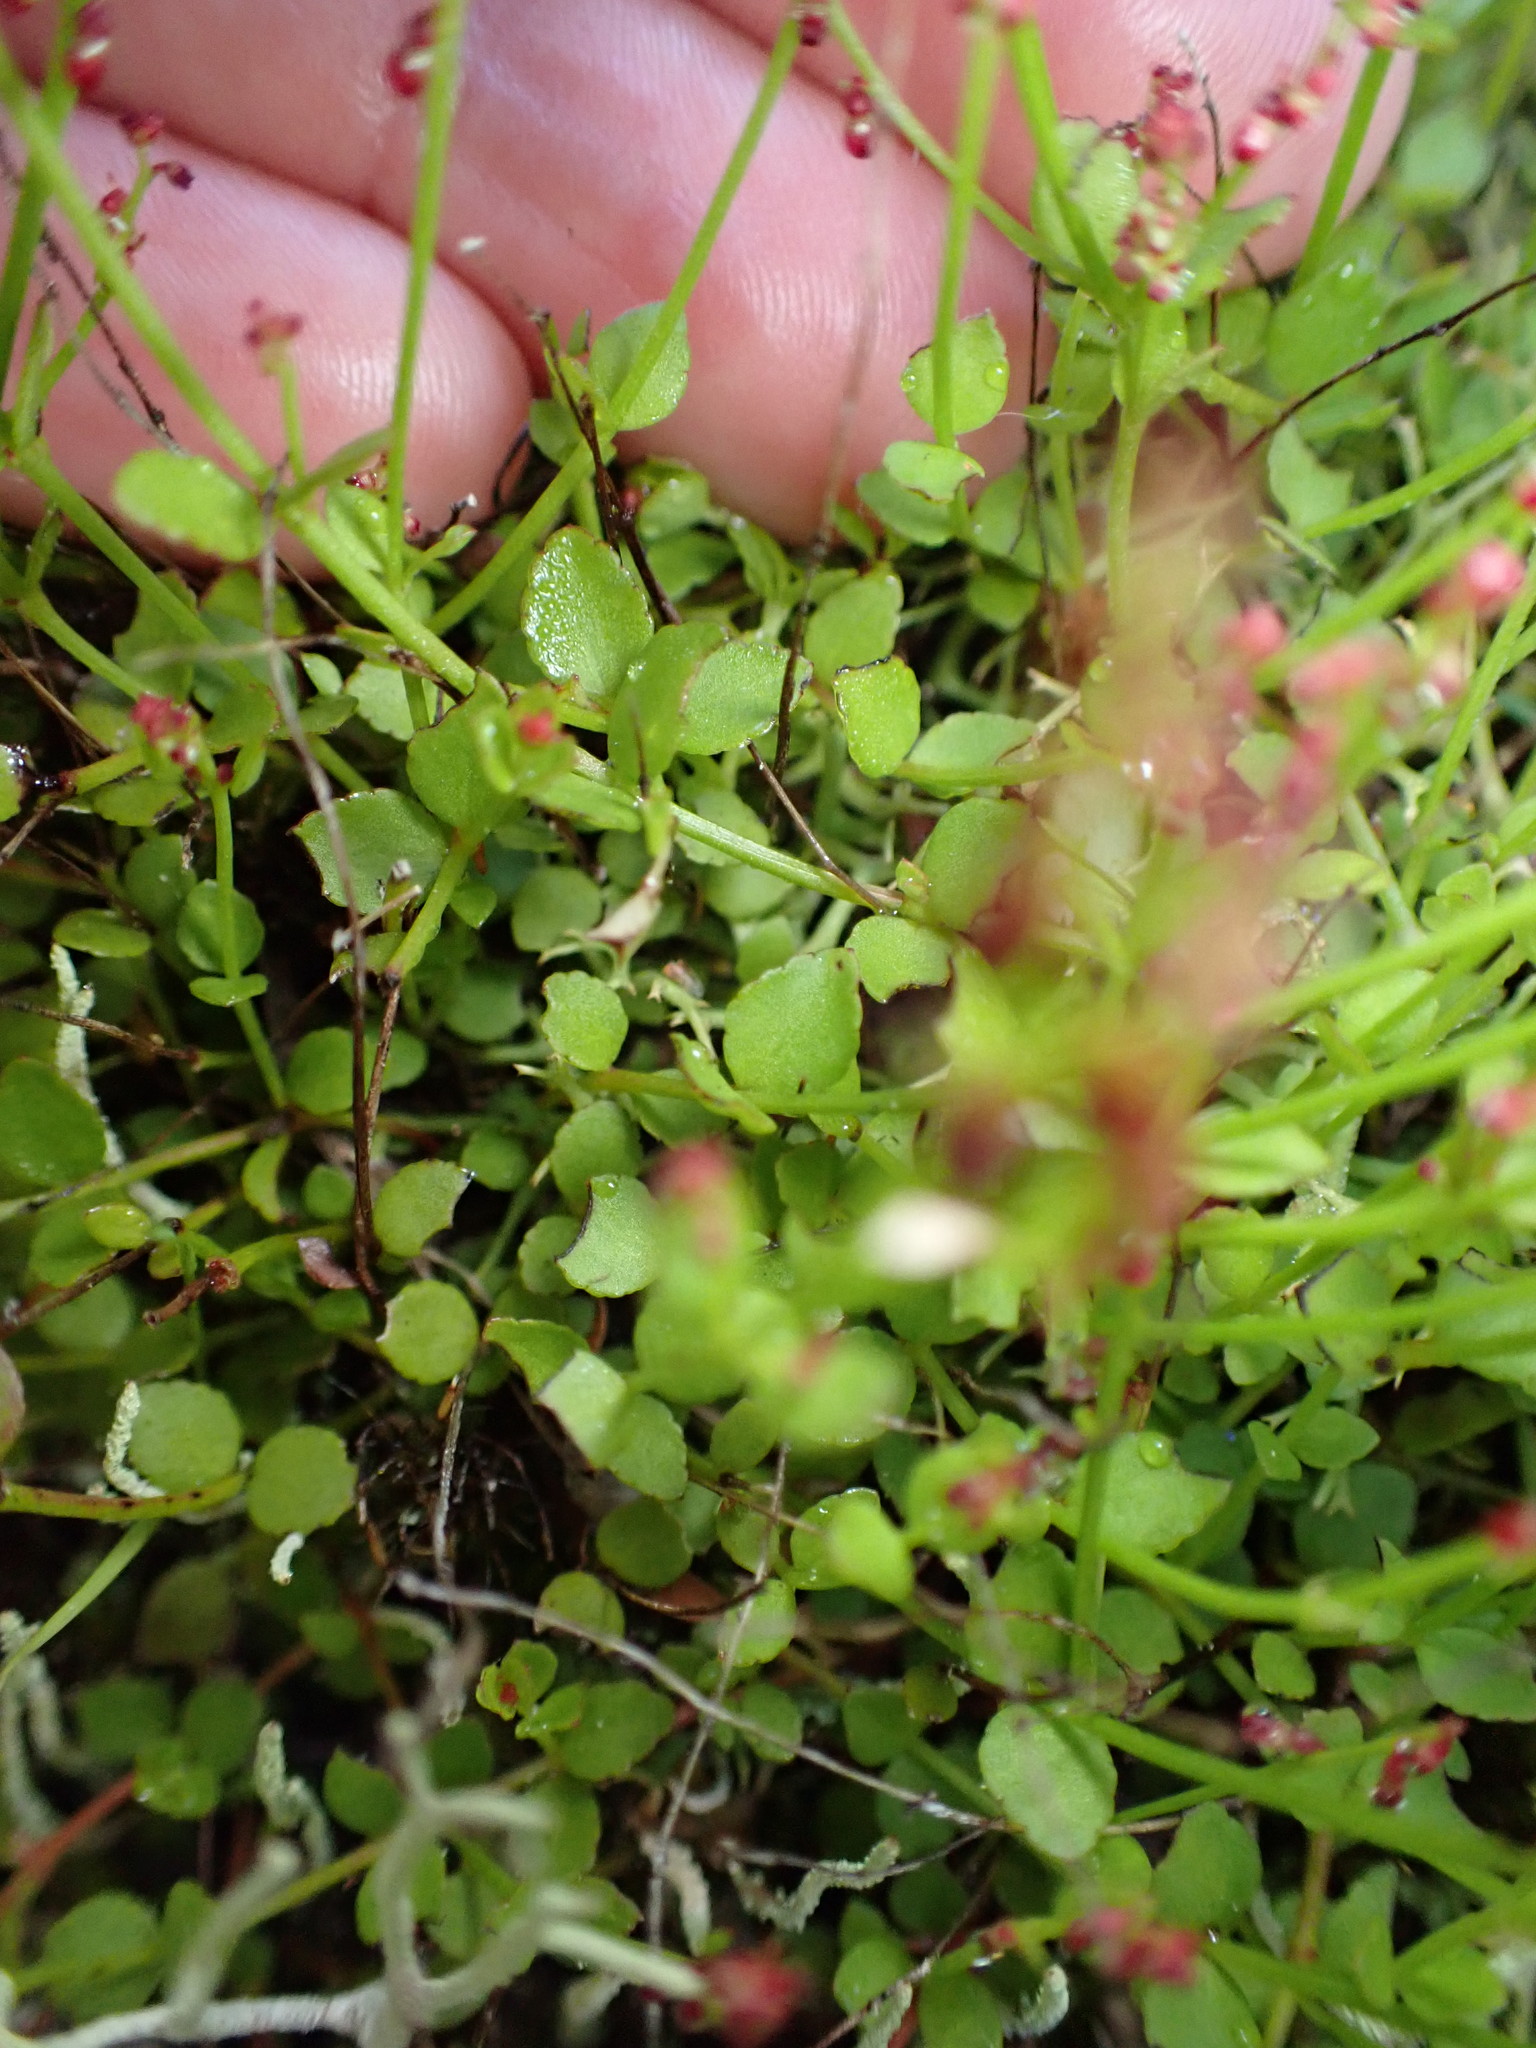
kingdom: Plantae
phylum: Tracheophyta
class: Magnoliopsida
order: Saxifragales
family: Haloragaceae
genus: Gonocarpus
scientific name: Gonocarpus micranthus
